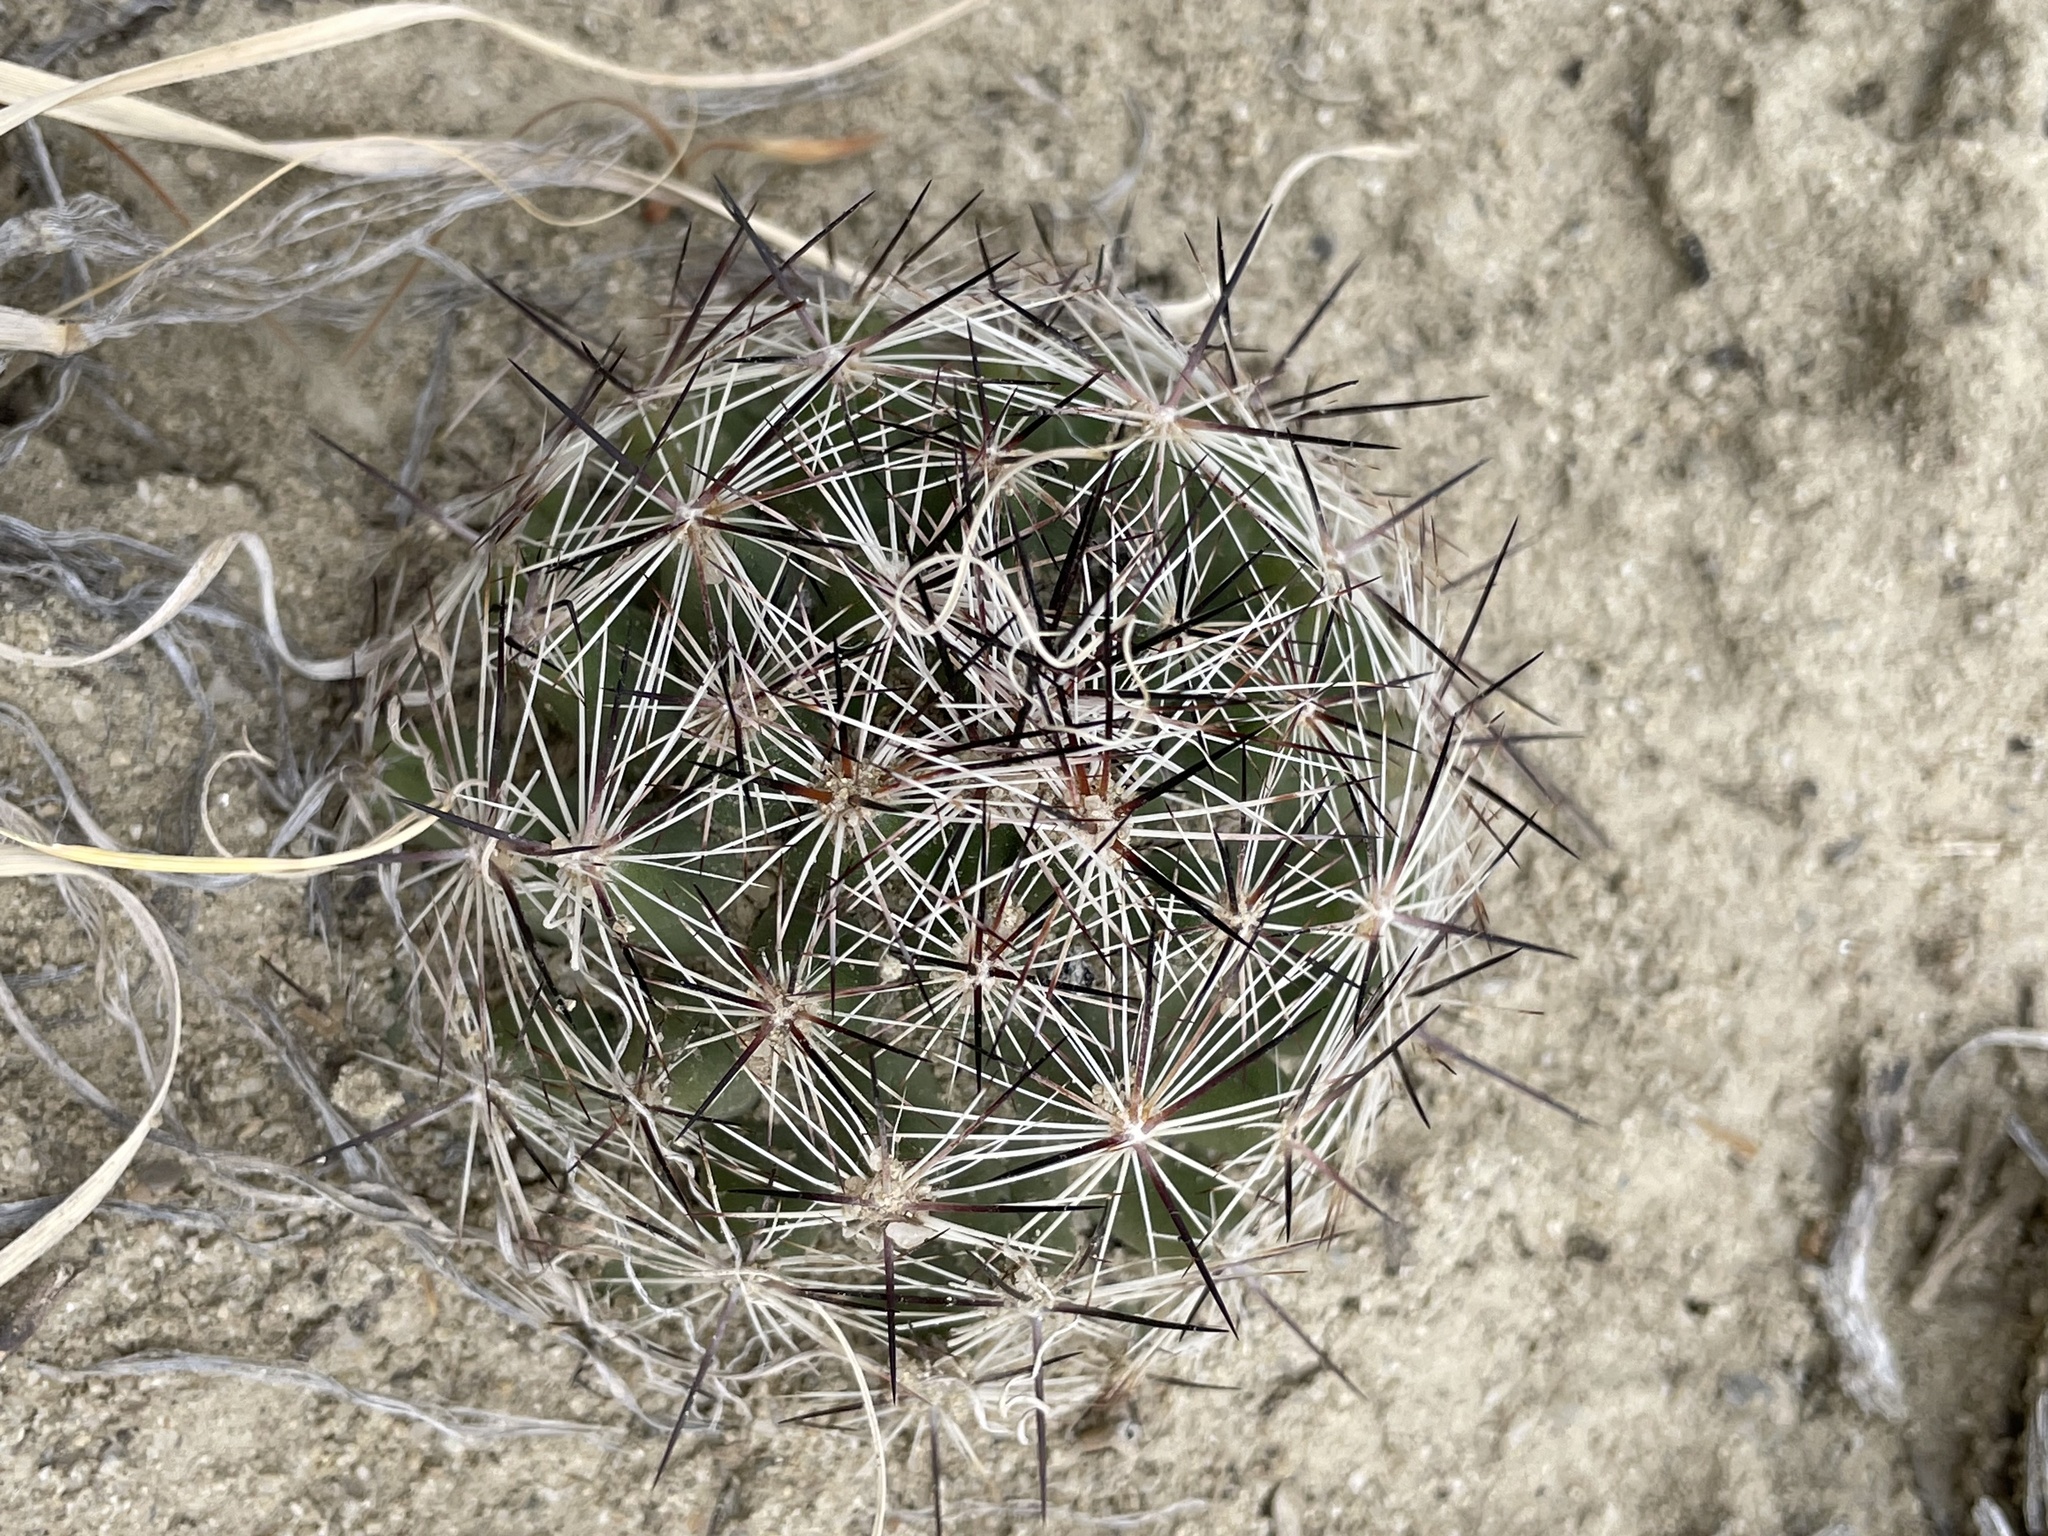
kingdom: Plantae
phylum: Tracheophyta
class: Magnoliopsida
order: Caryophyllales
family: Cactaceae
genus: Pelecyphora
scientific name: Pelecyphora vivipara
